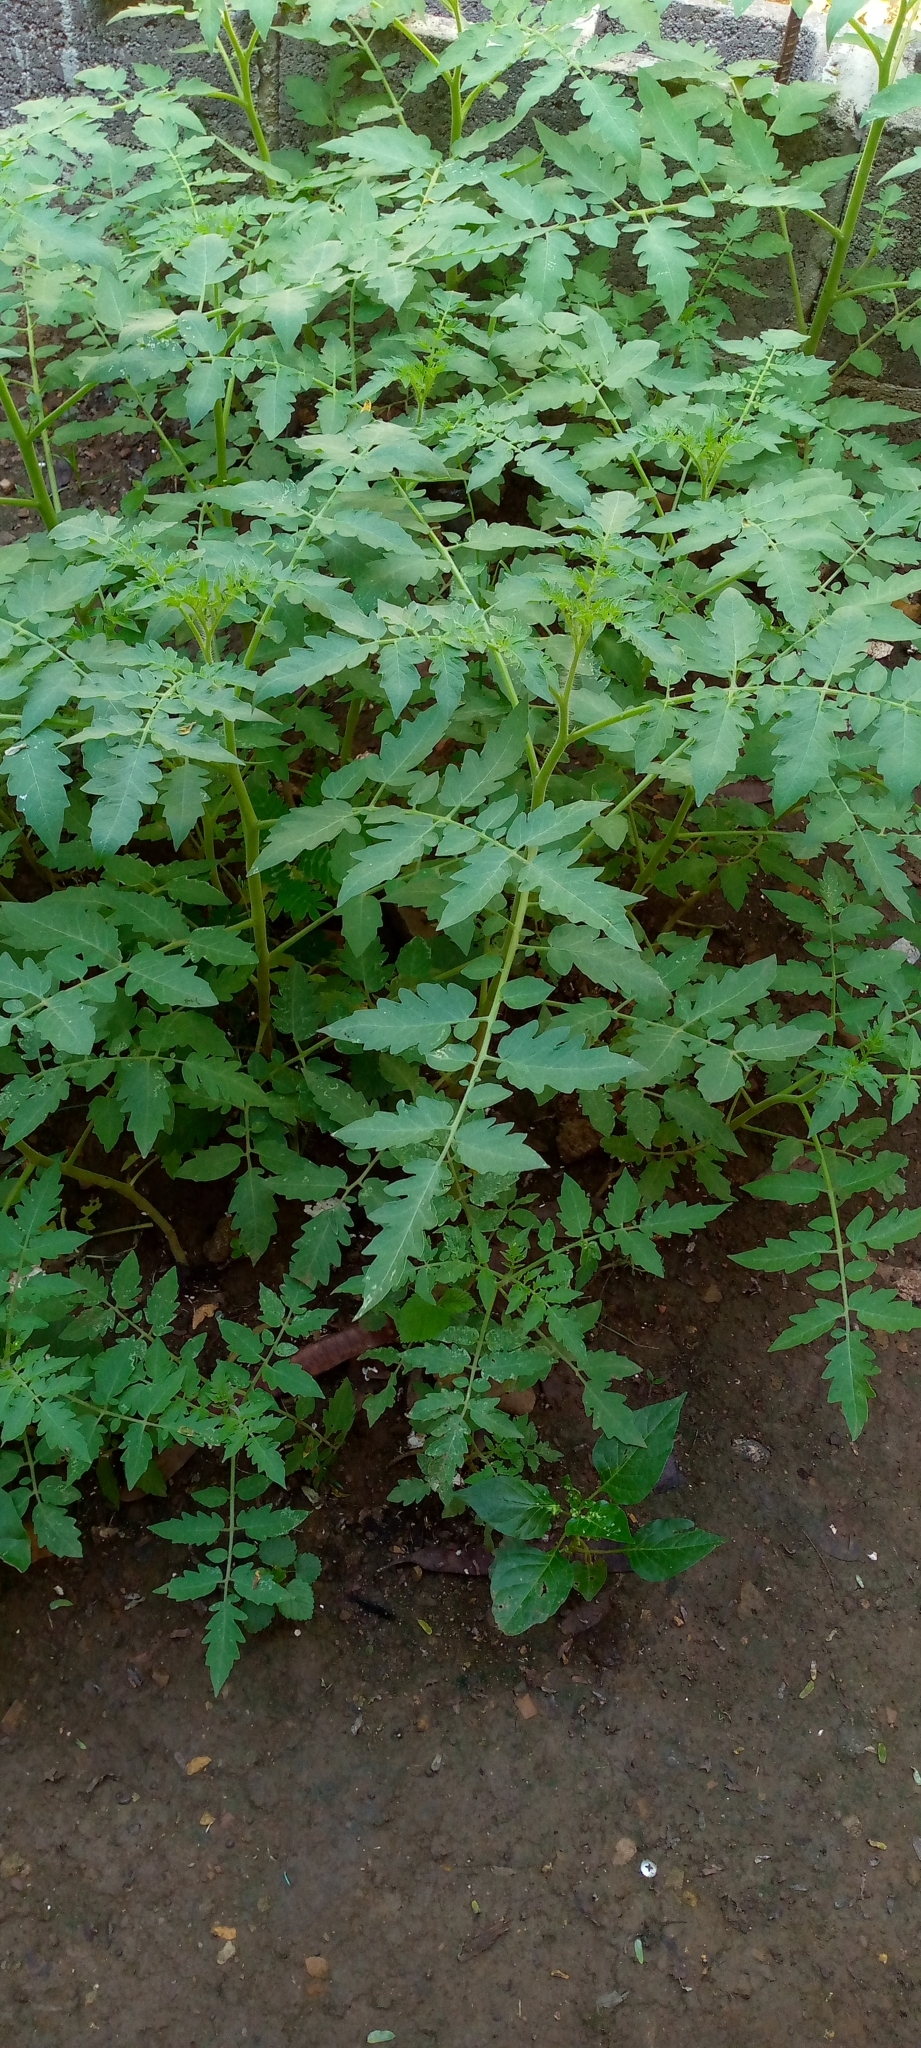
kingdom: Plantae
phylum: Tracheophyta
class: Magnoliopsida
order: Solanales
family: Solanaceae
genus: Solanum
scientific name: Solanum lycopersicum
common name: Garden tomato
